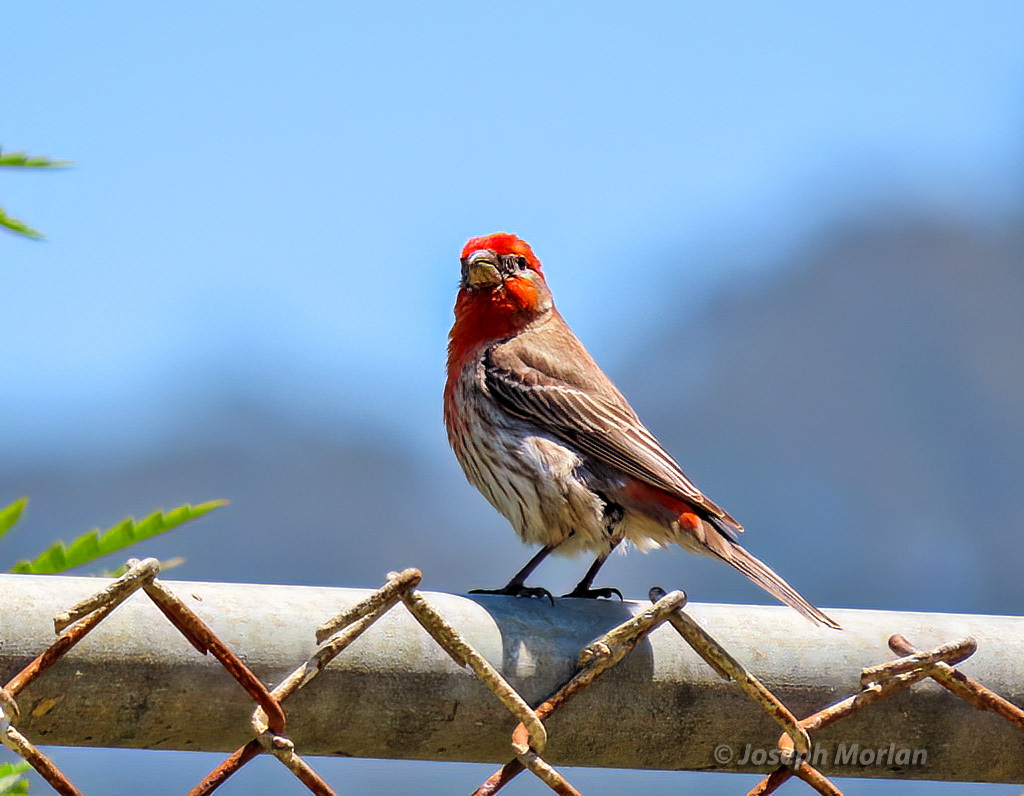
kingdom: Animalia
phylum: Chordata
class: Aves
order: Passeriformes
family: Fringillidae
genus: Haemorhous
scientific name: Haemorhous mexicanus
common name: House finch
